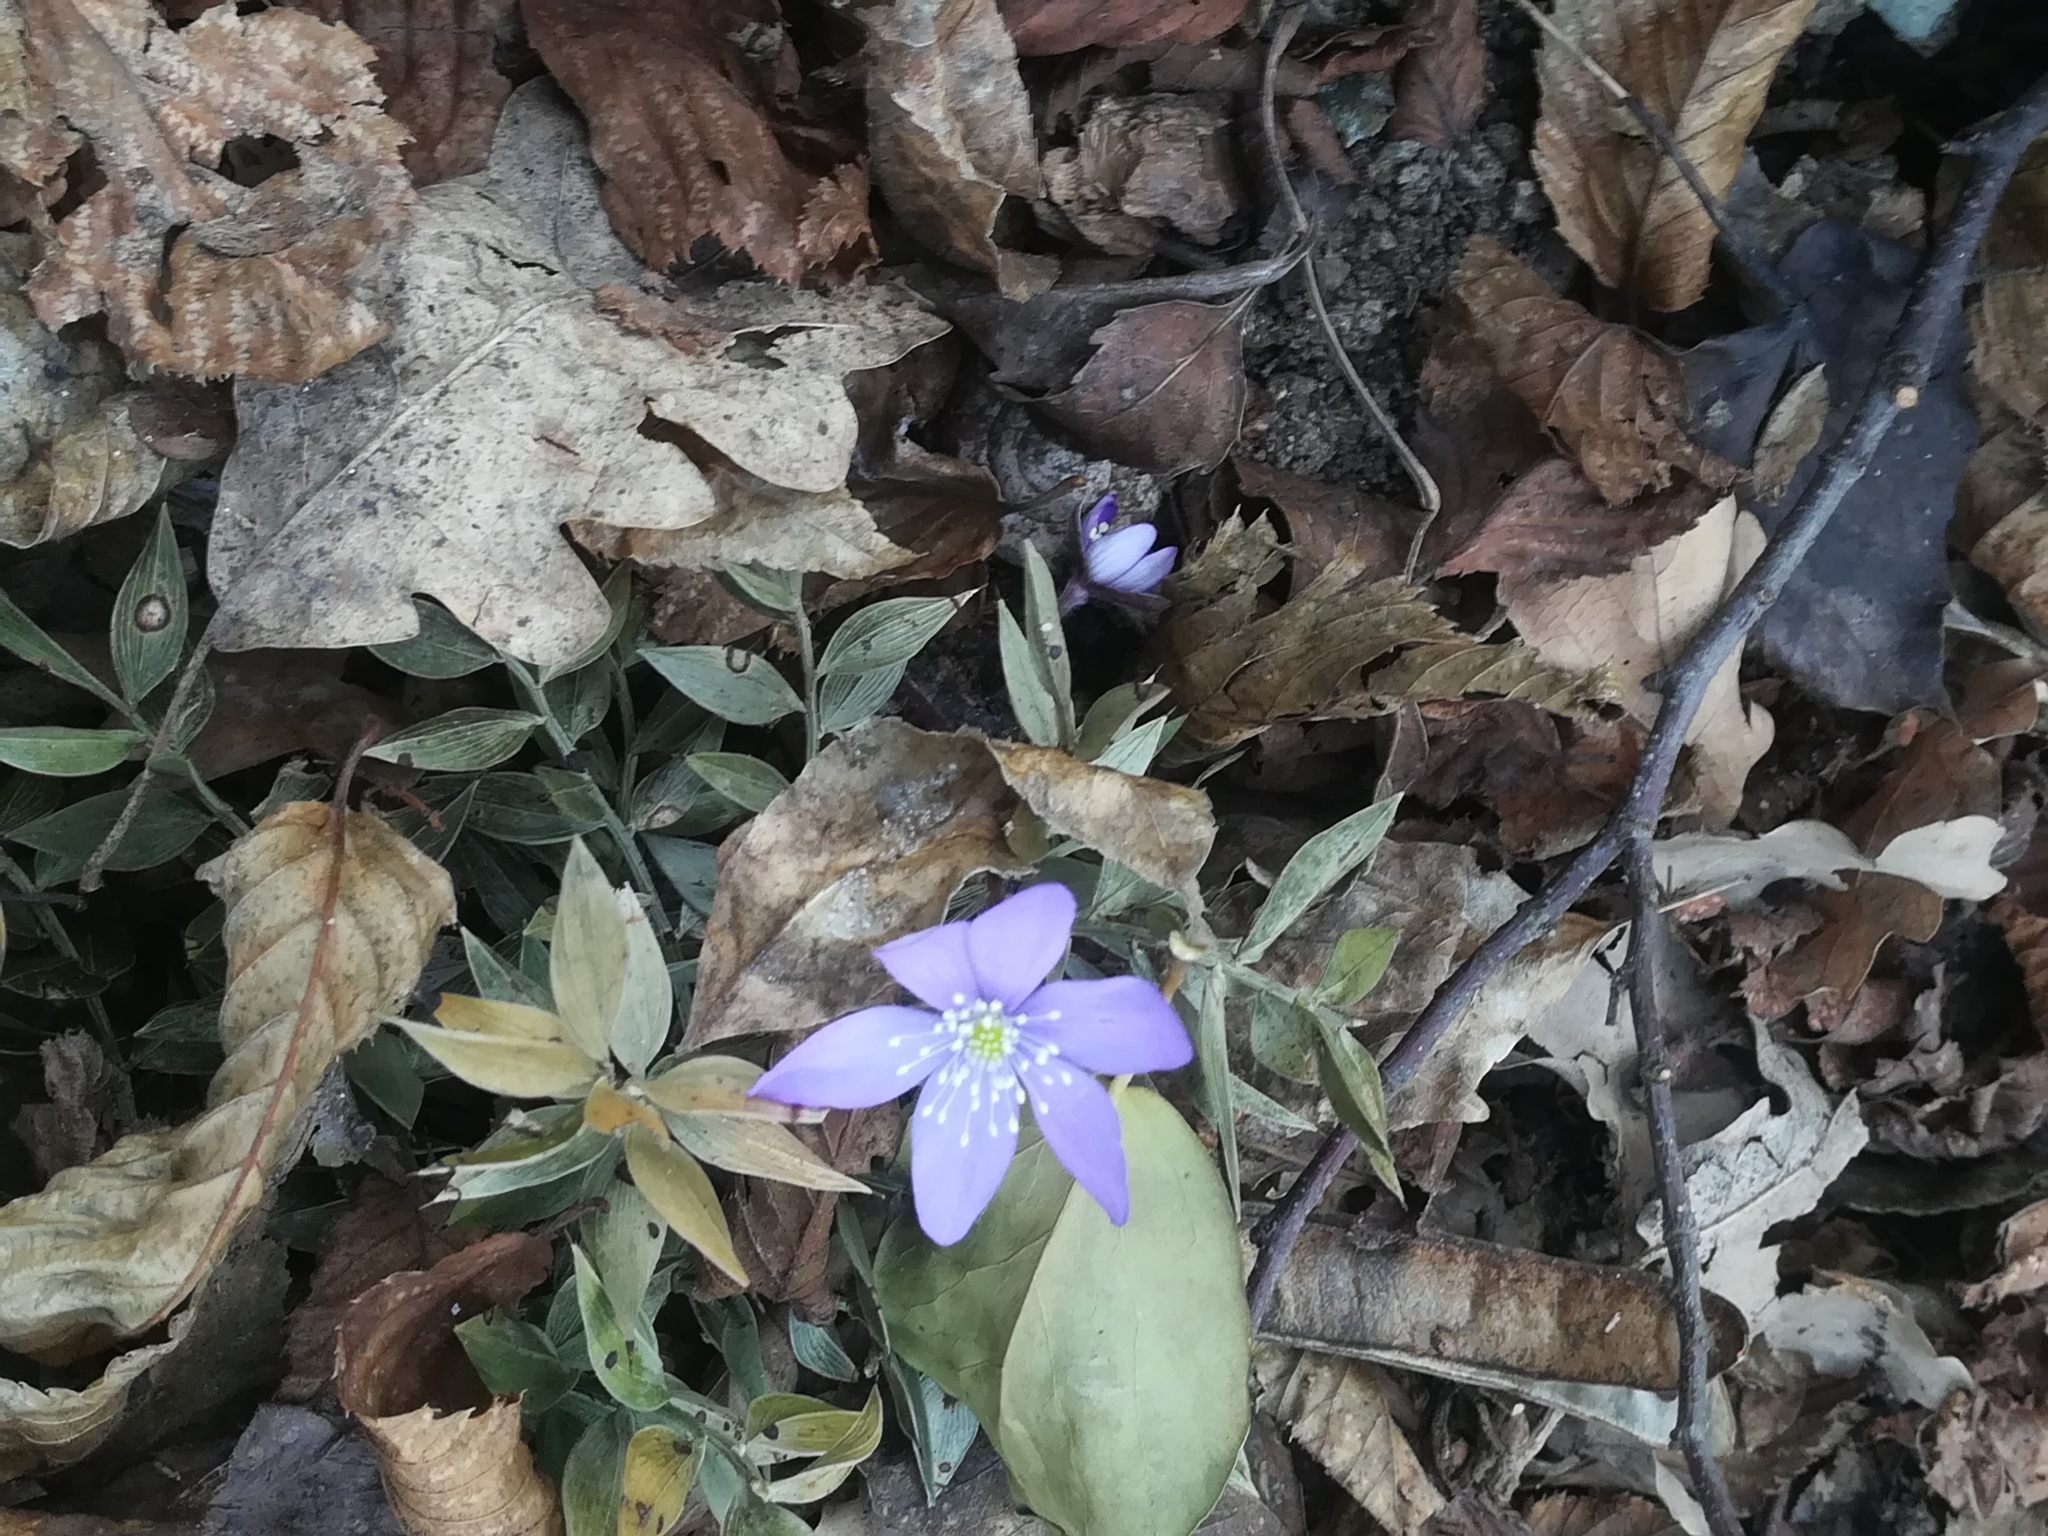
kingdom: Plantae
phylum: Tracheophyta
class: Magnoliopsida
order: Ranunculales
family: Ranunculaceae
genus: Hepatica
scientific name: Hepatica nobilis
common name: Liverleaf
